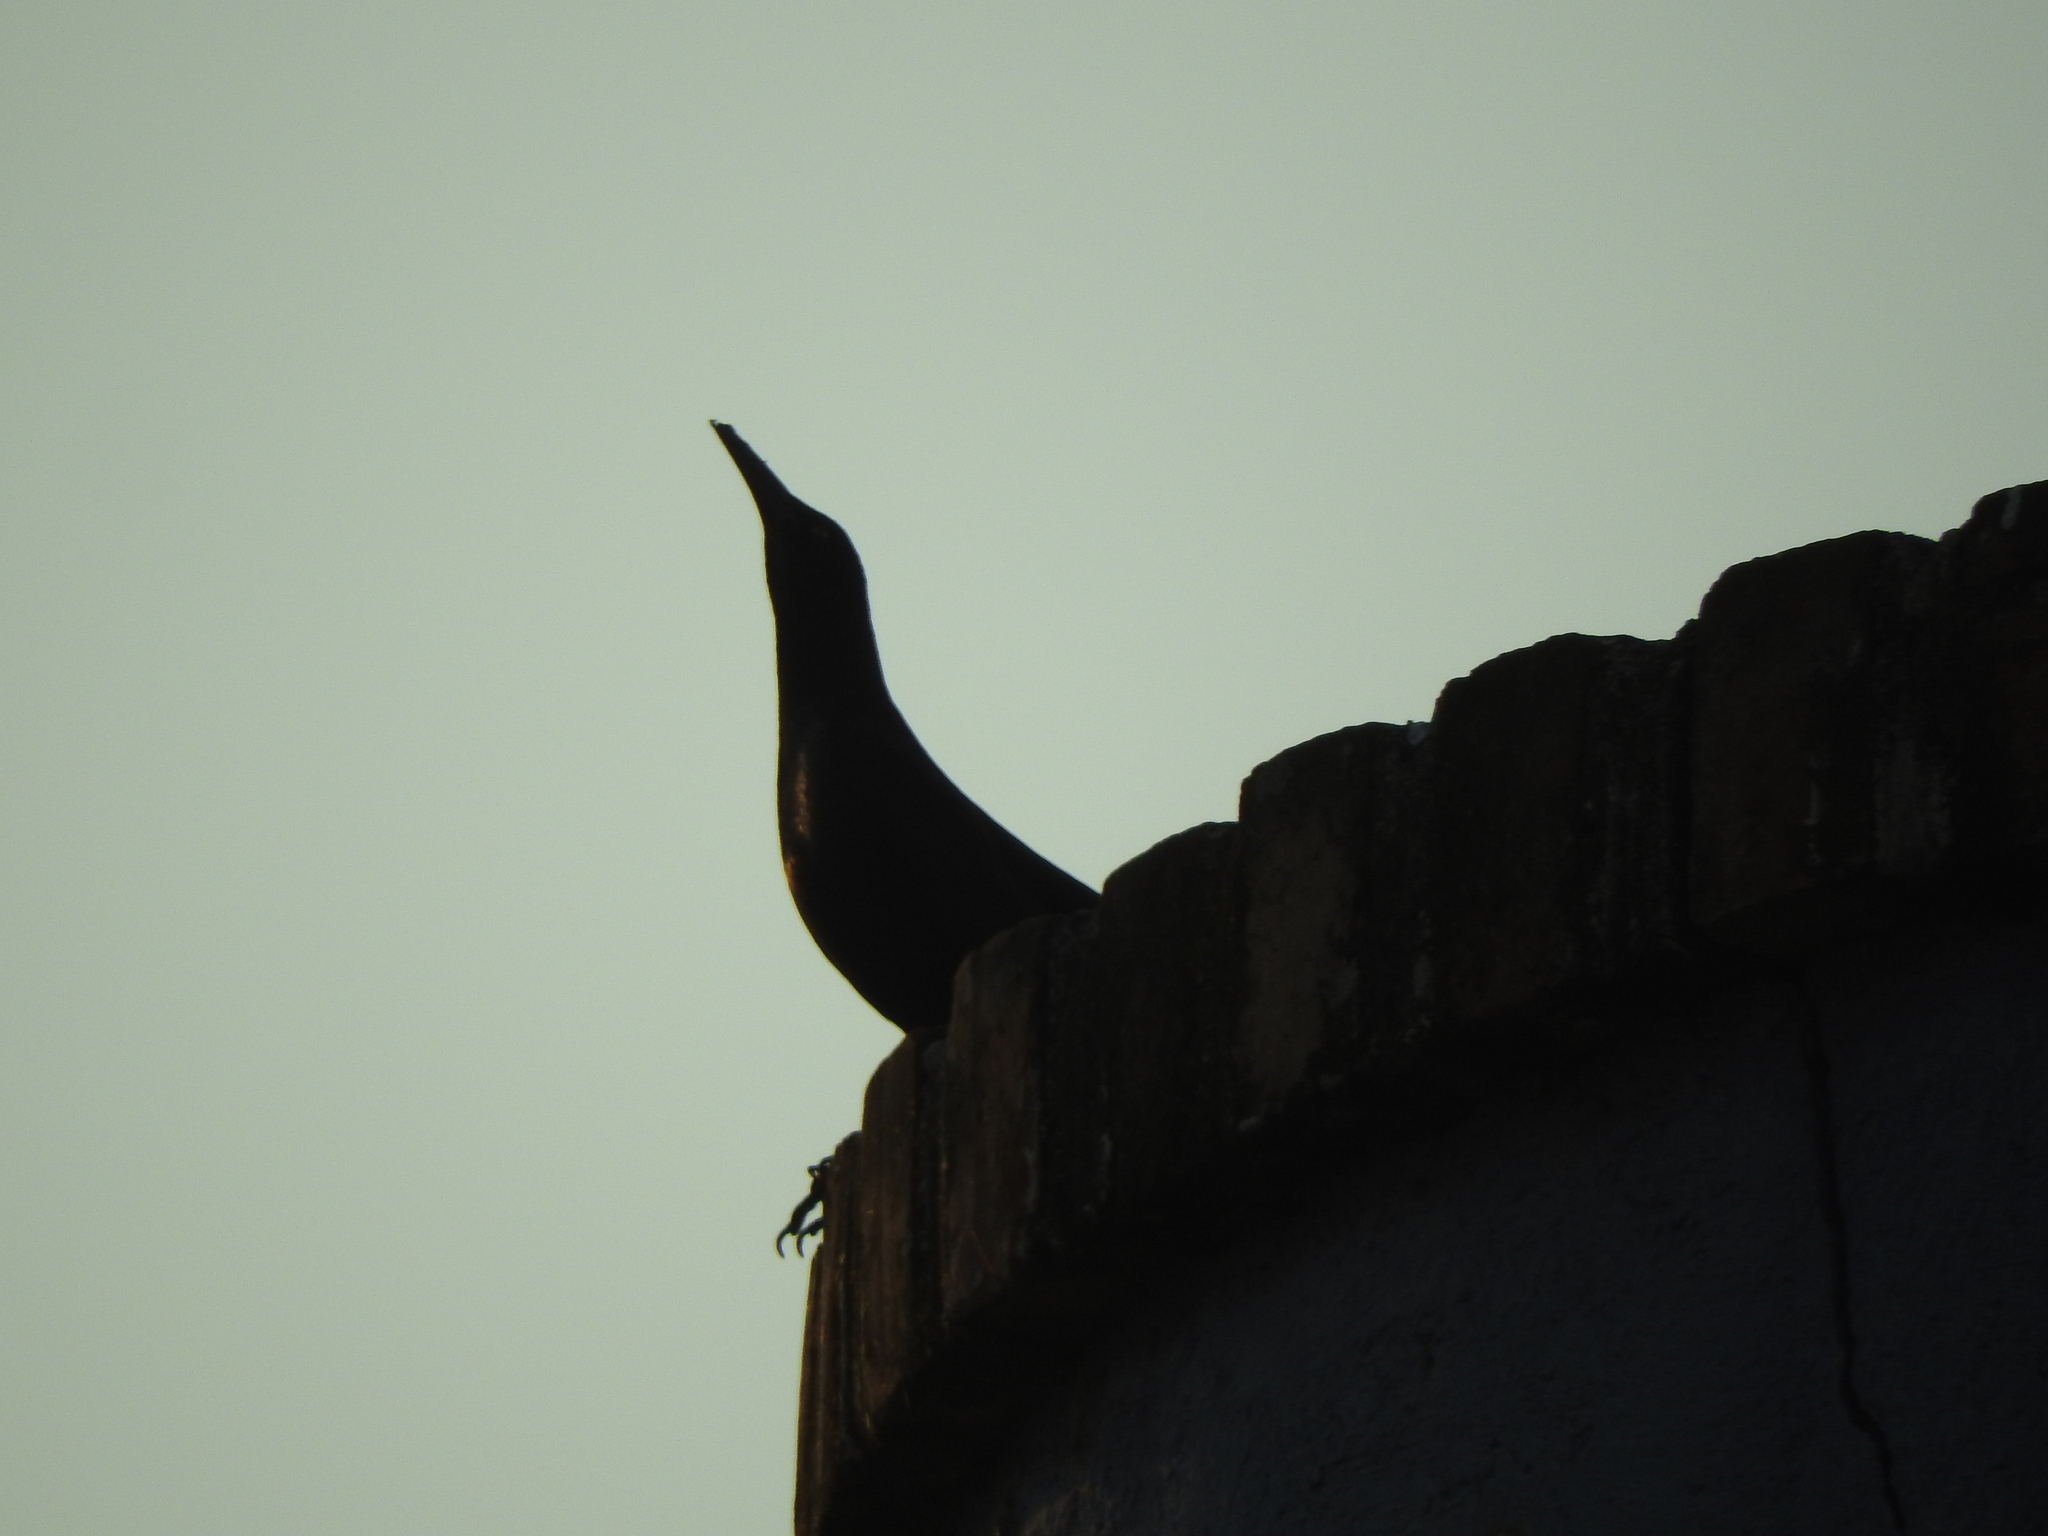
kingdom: Animalia
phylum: Chordata
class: Aves
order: Passeriformes
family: Icteridae
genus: Quiscalus
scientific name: Quiscalus mexicanus
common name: Great-tailed grackle
